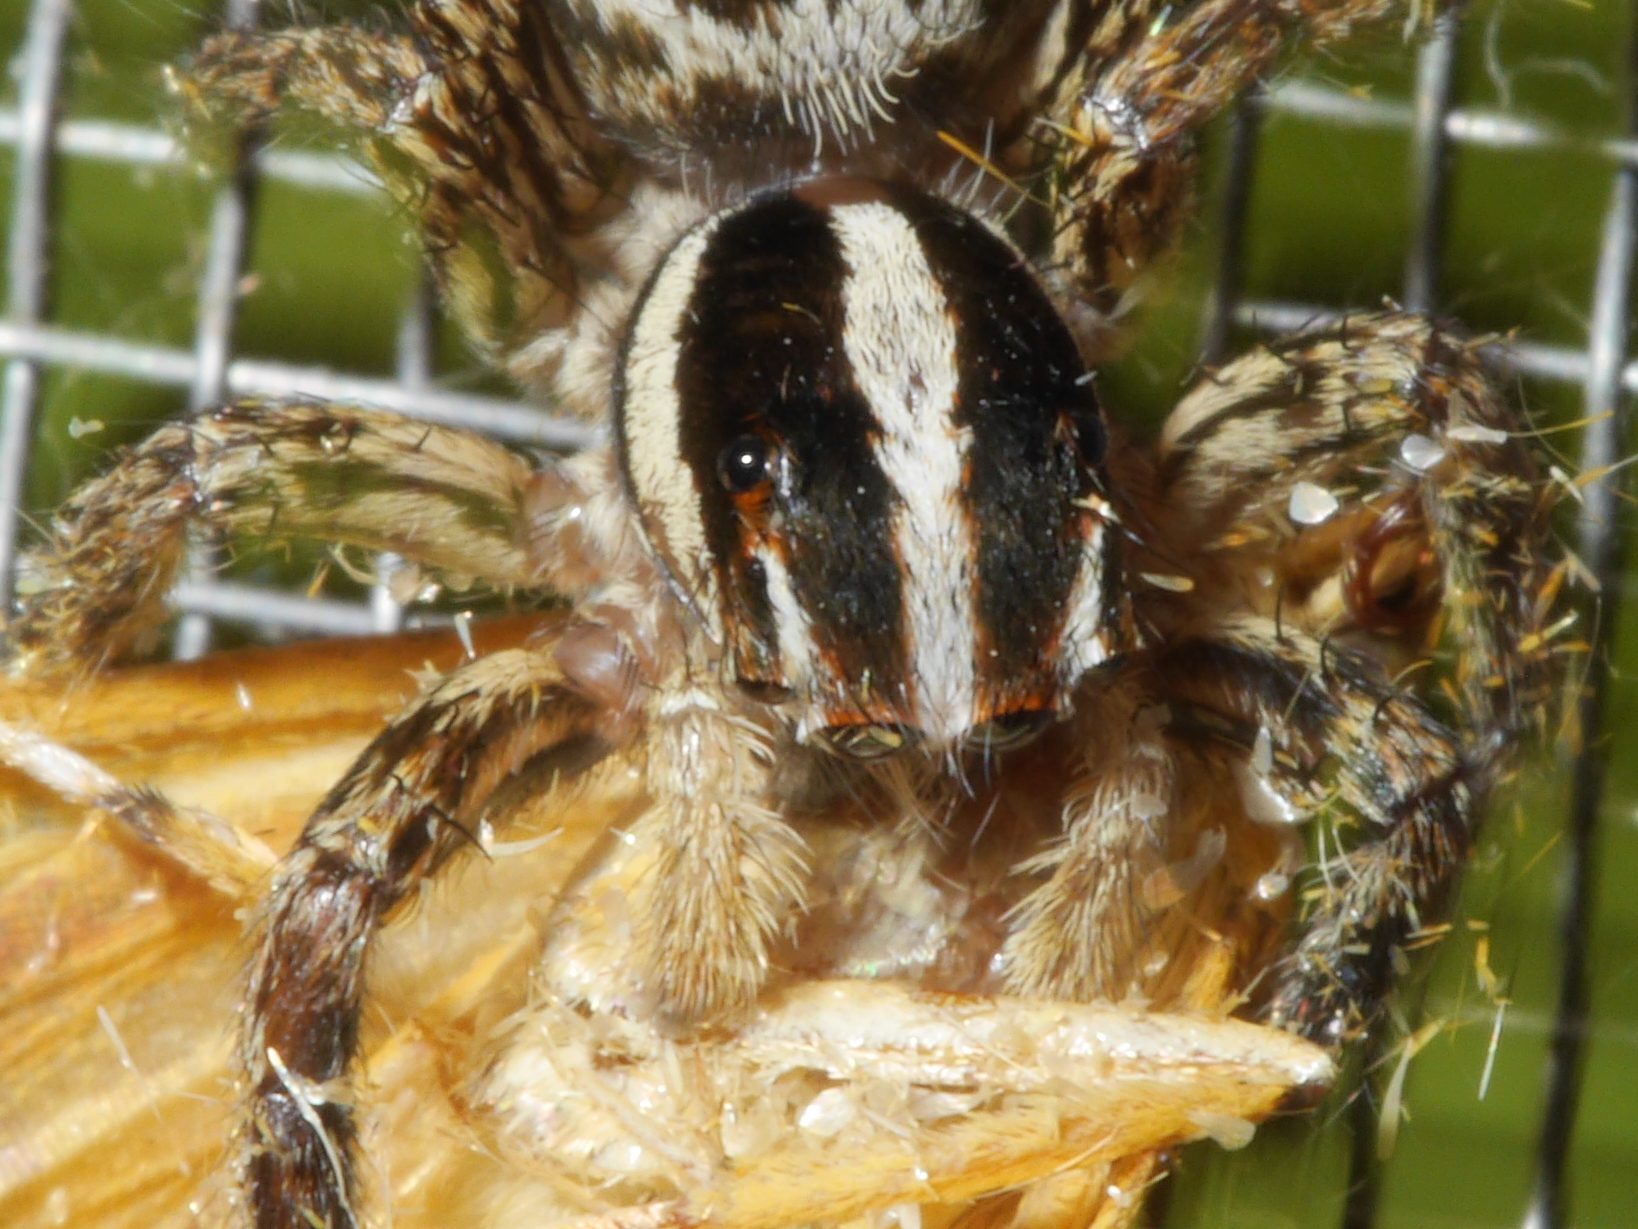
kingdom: Animalia
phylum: Arthropoda
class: Arachnida
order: Araneae
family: Salticidae
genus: Plexippus
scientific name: Plexippus paykulli
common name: Pantropical jumper
